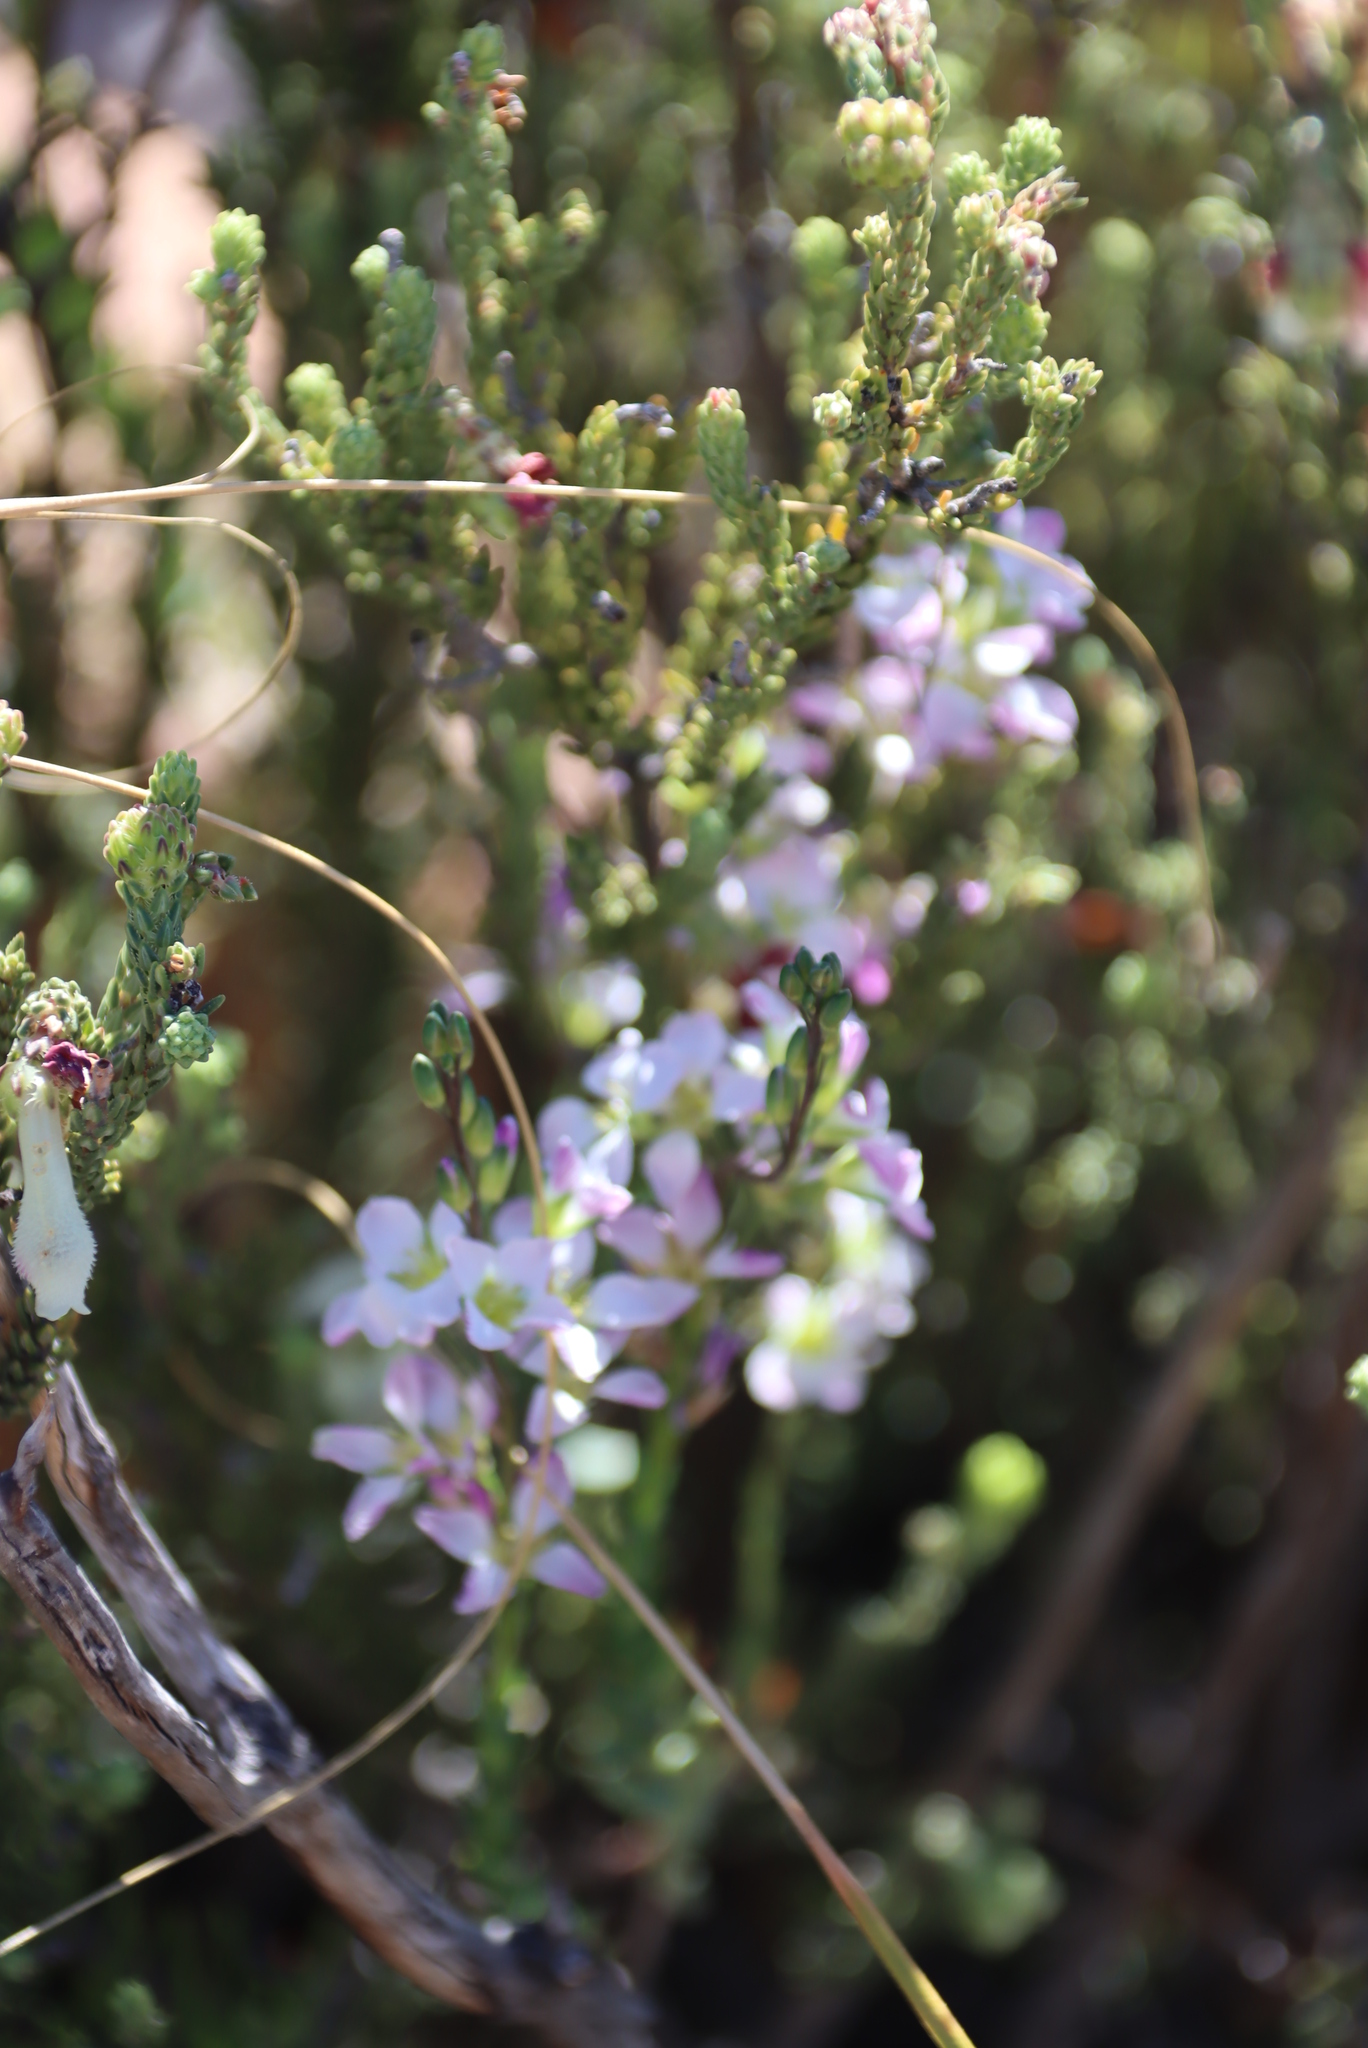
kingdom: Plantae
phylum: Tracheophyta
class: Magnoliopsida
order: Brassicales
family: Brassicaceae
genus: Heliophila
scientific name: Heliophila glauca
